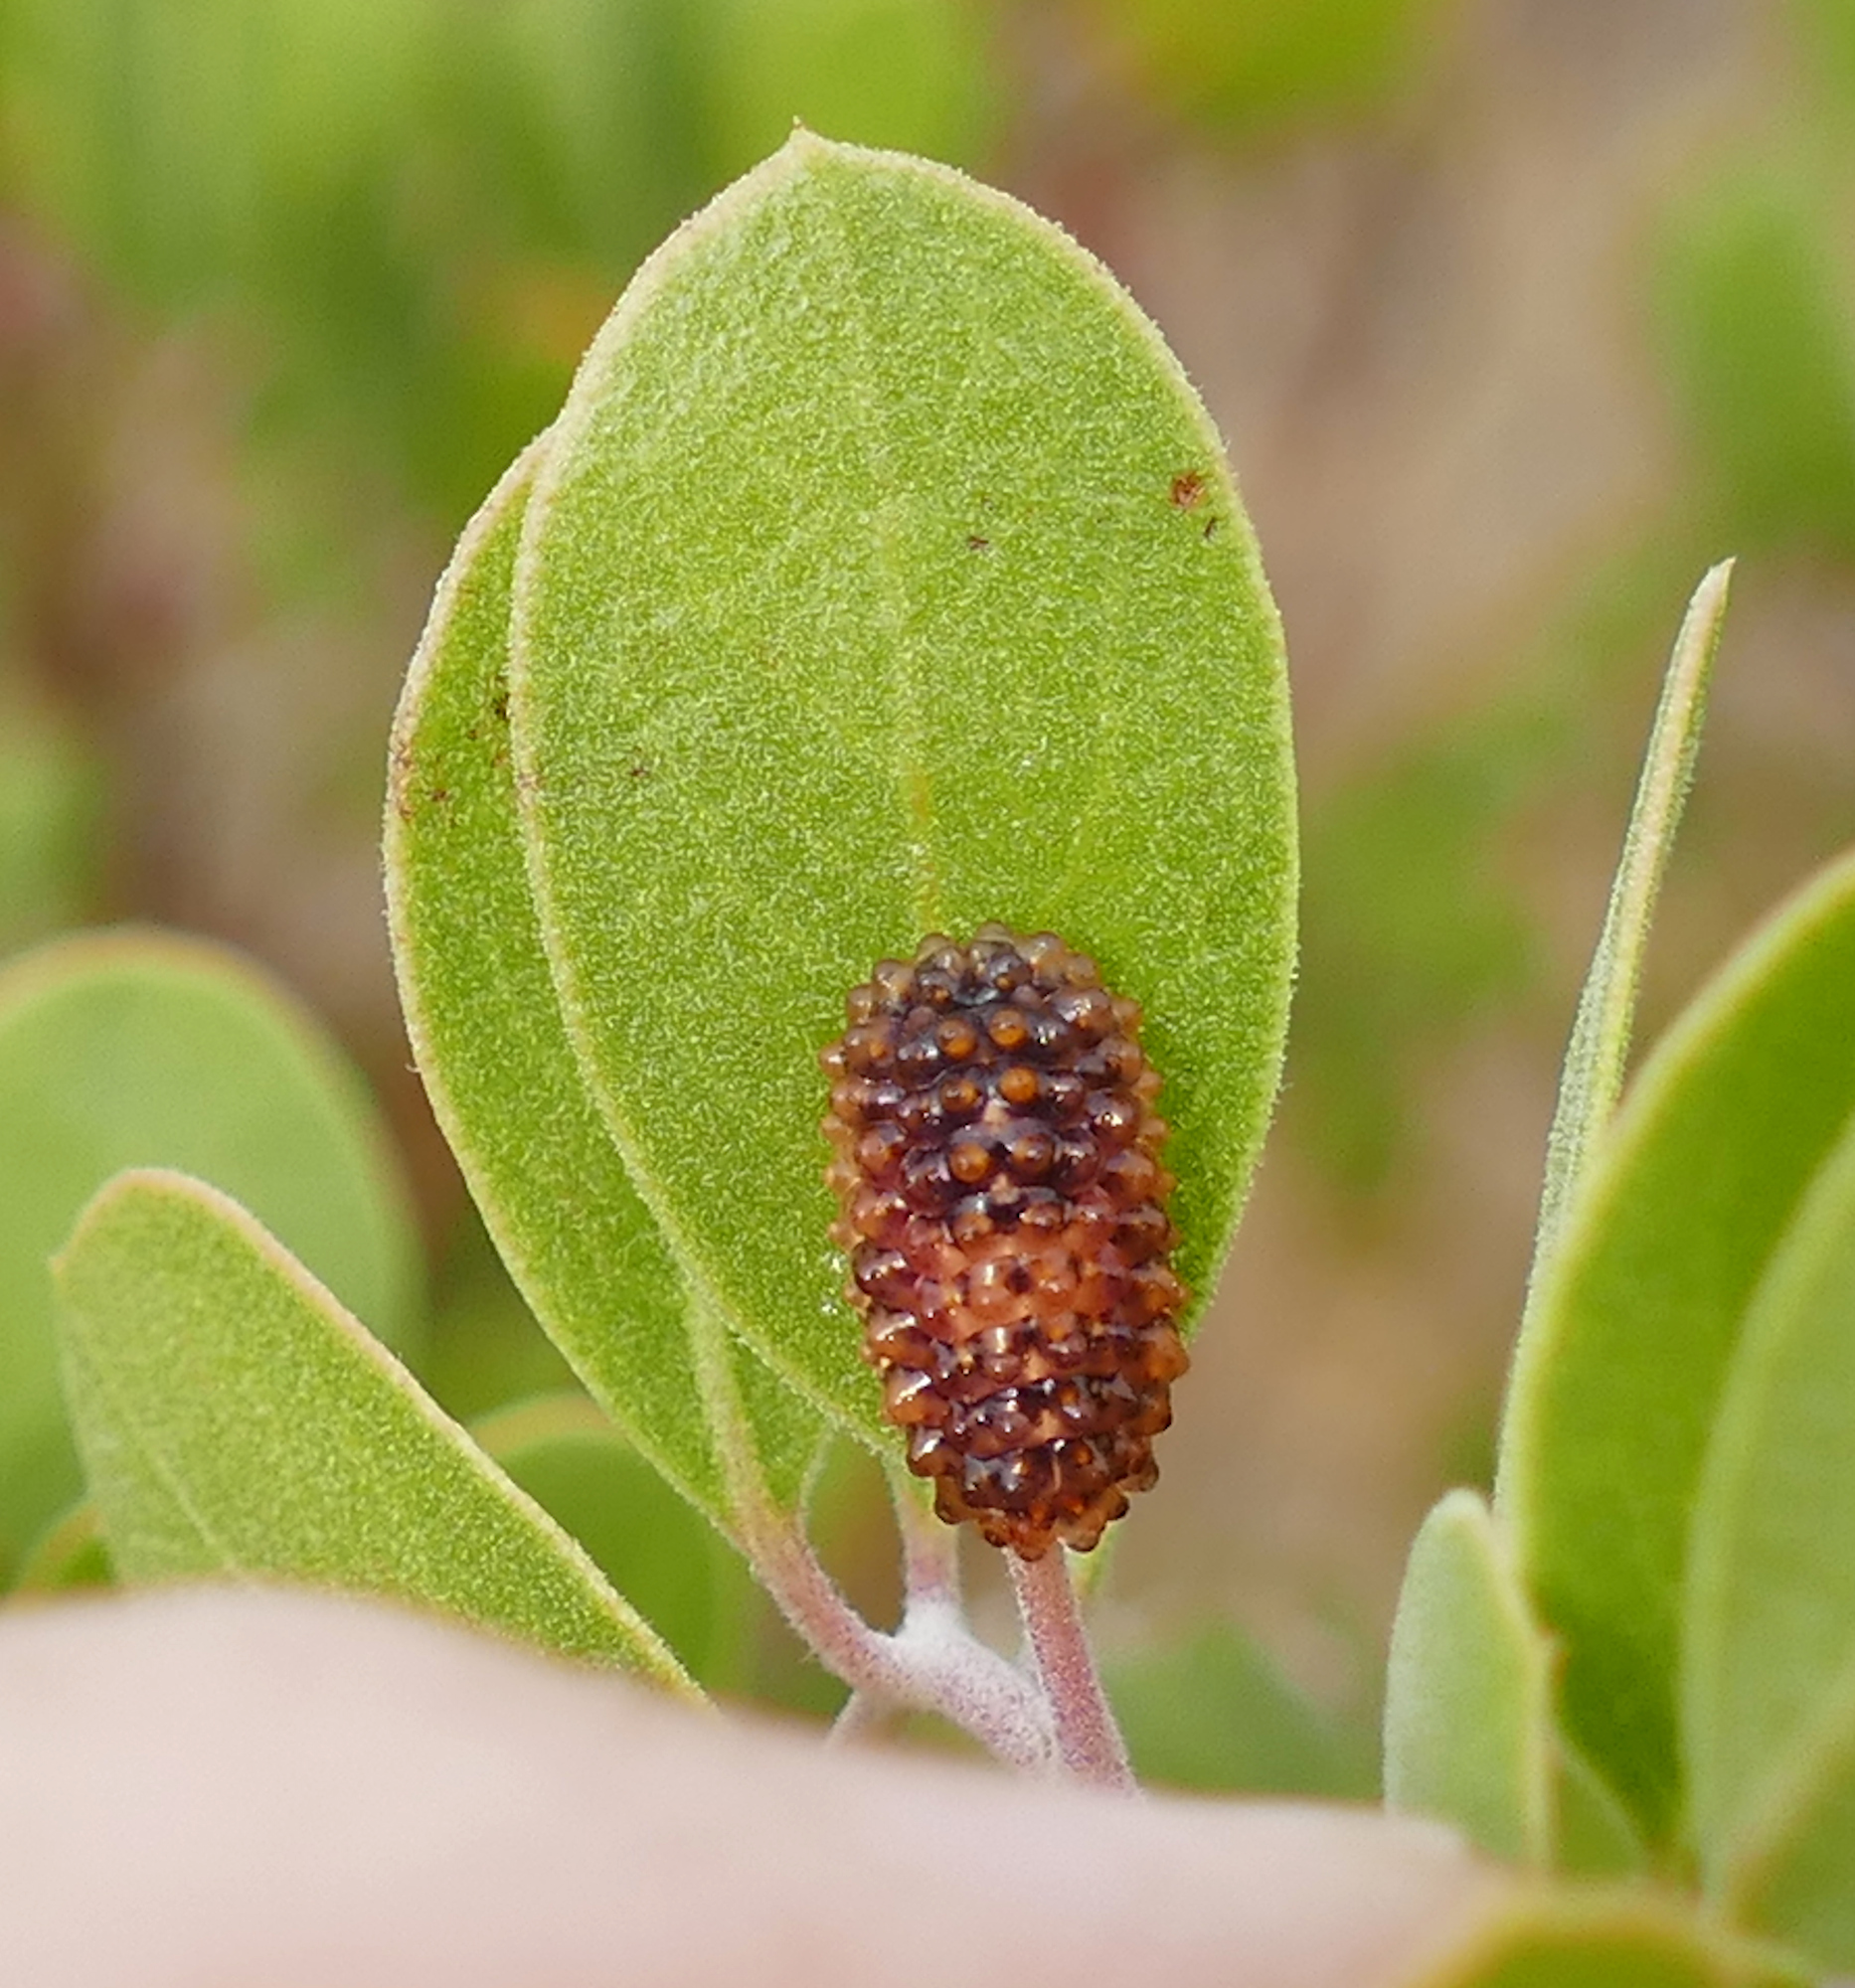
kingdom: Animalia
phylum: Arthropoda
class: Insecta
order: Lepidoptera
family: Dalceridae
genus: Dalcerides
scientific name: Dalcerides ingenita
